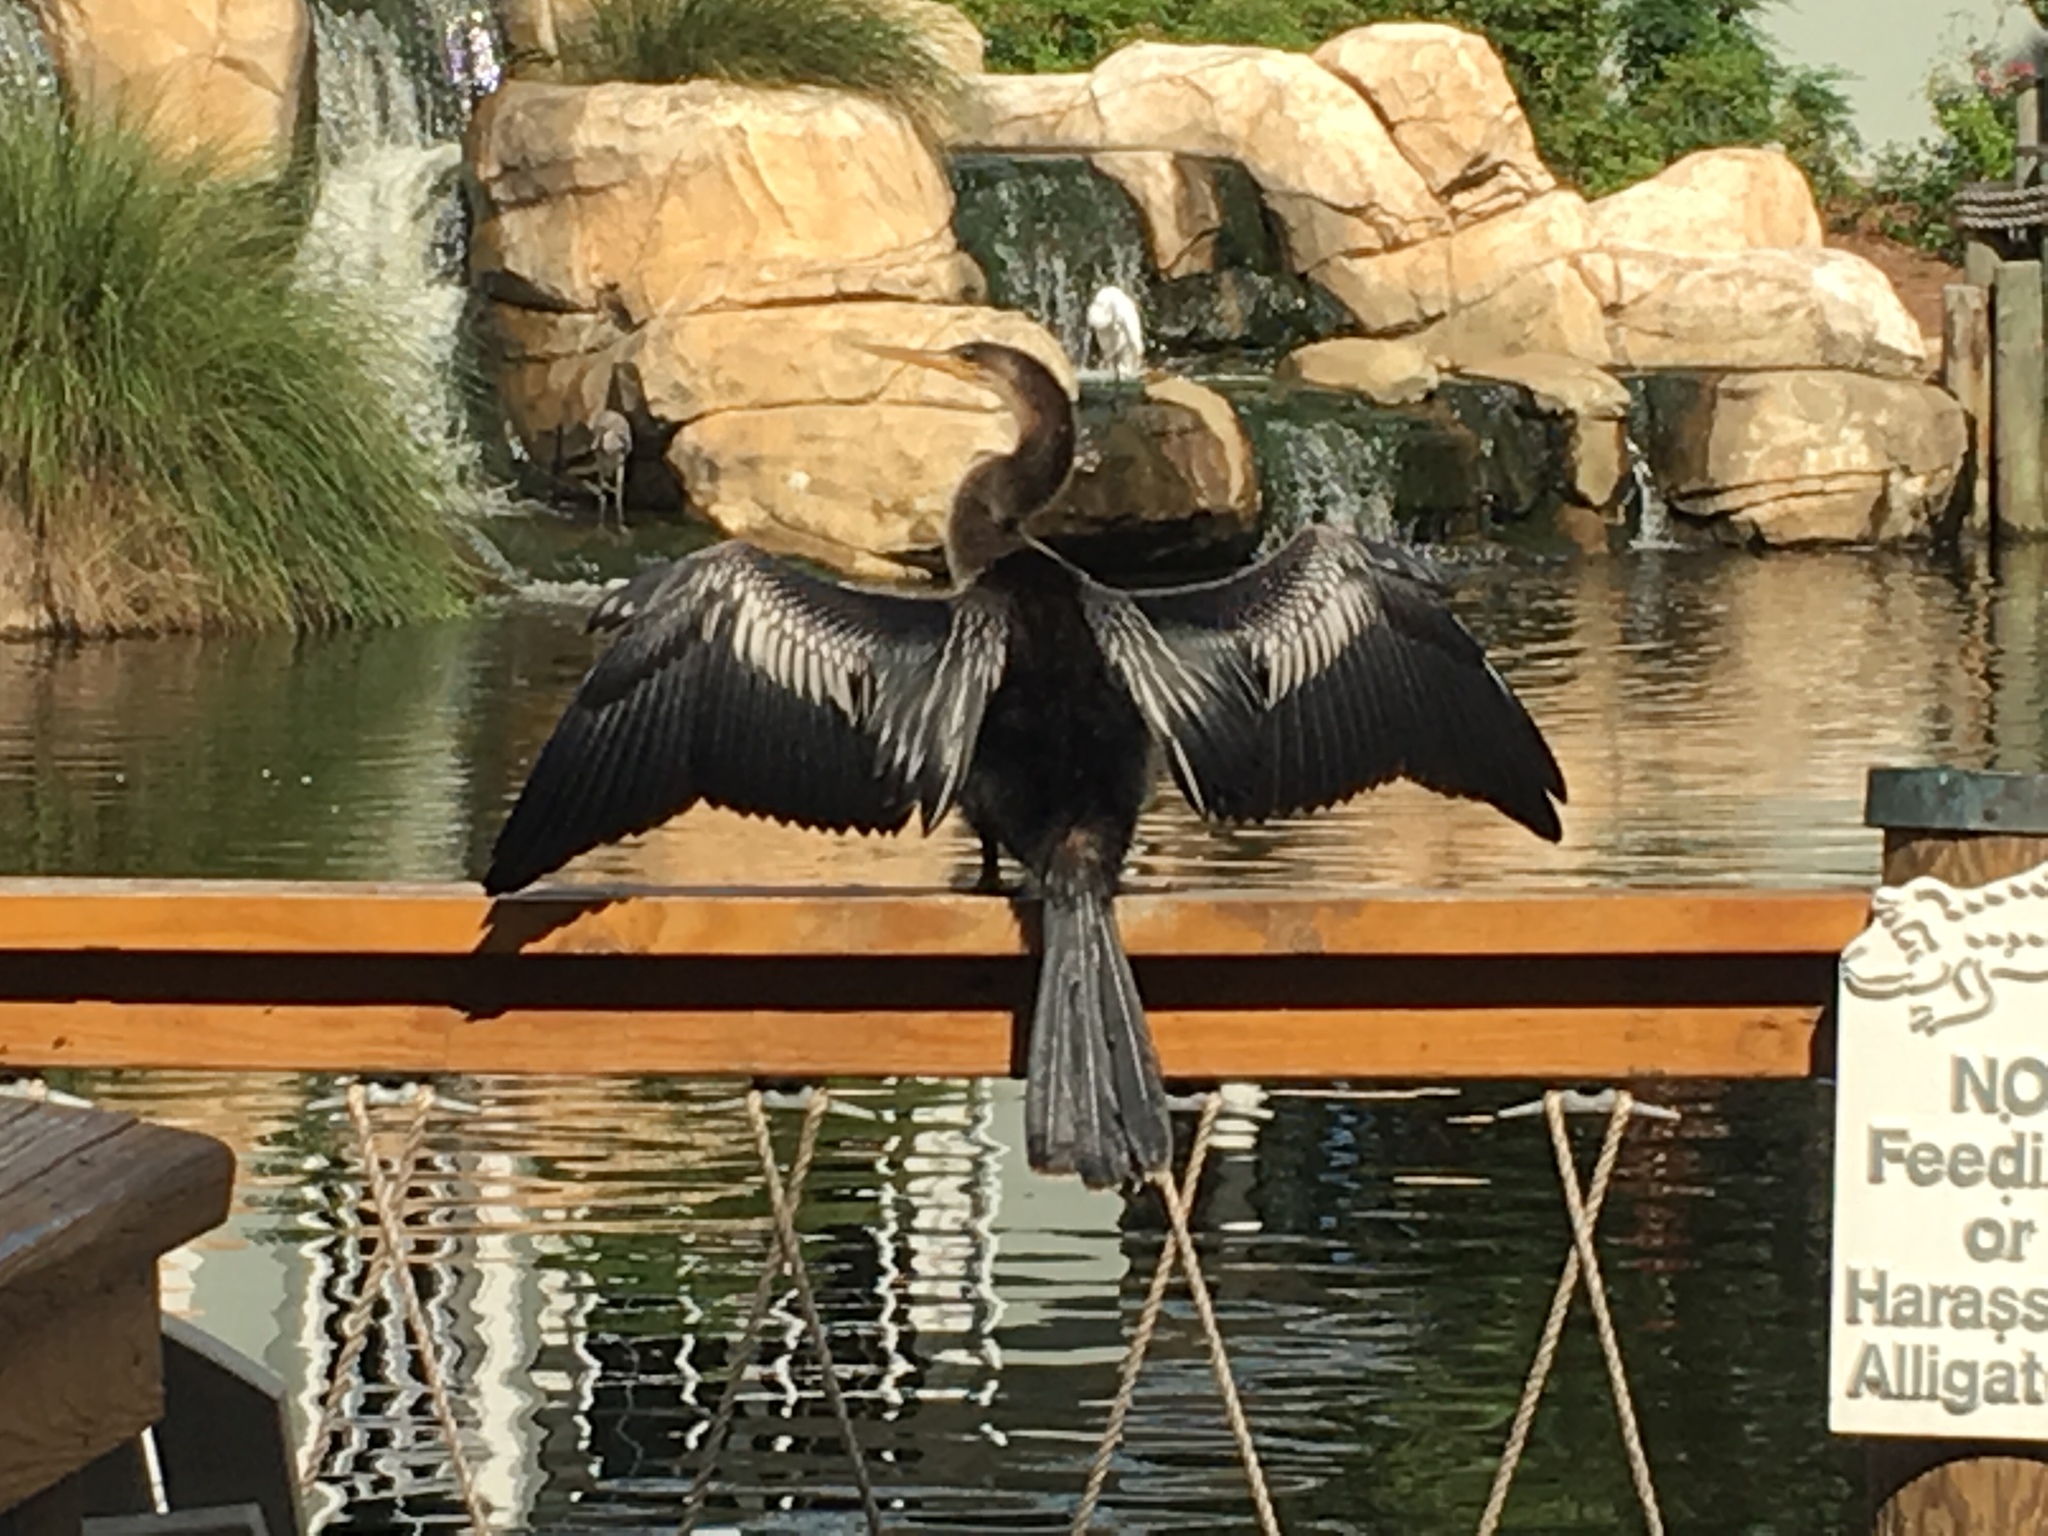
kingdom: Animalia
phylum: Chordata
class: Aves
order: Suliformes
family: Anhingidae
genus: Anhinga
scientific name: Anhinga anhinga
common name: Anhinga
